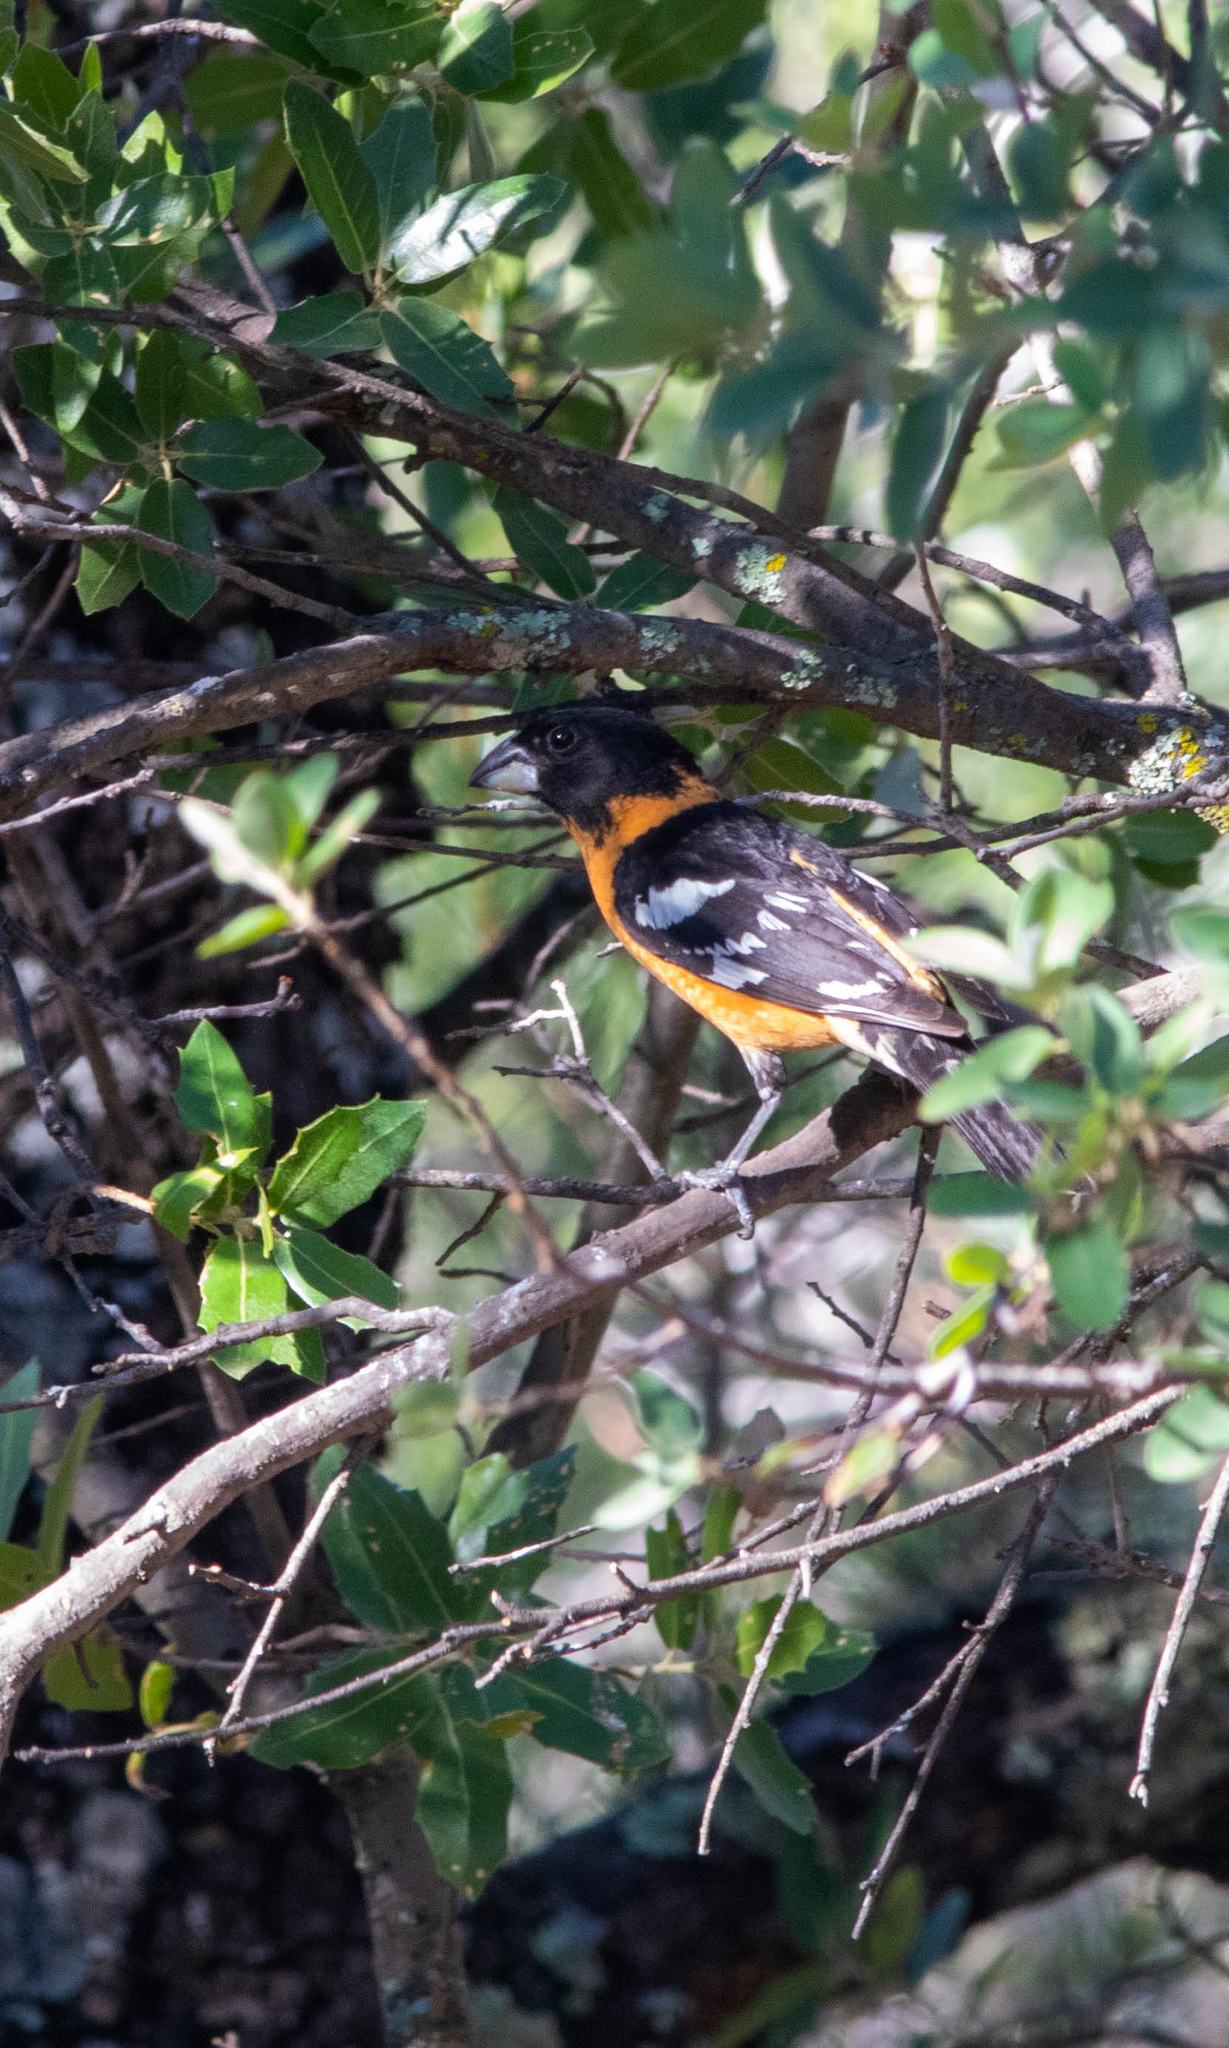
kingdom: Animalia
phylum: Chordata
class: Aves
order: Passeriformes
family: Cardinalidae
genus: Pheucticus
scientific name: Pheucticus melanocephalus
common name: Black-headed grosbeak
